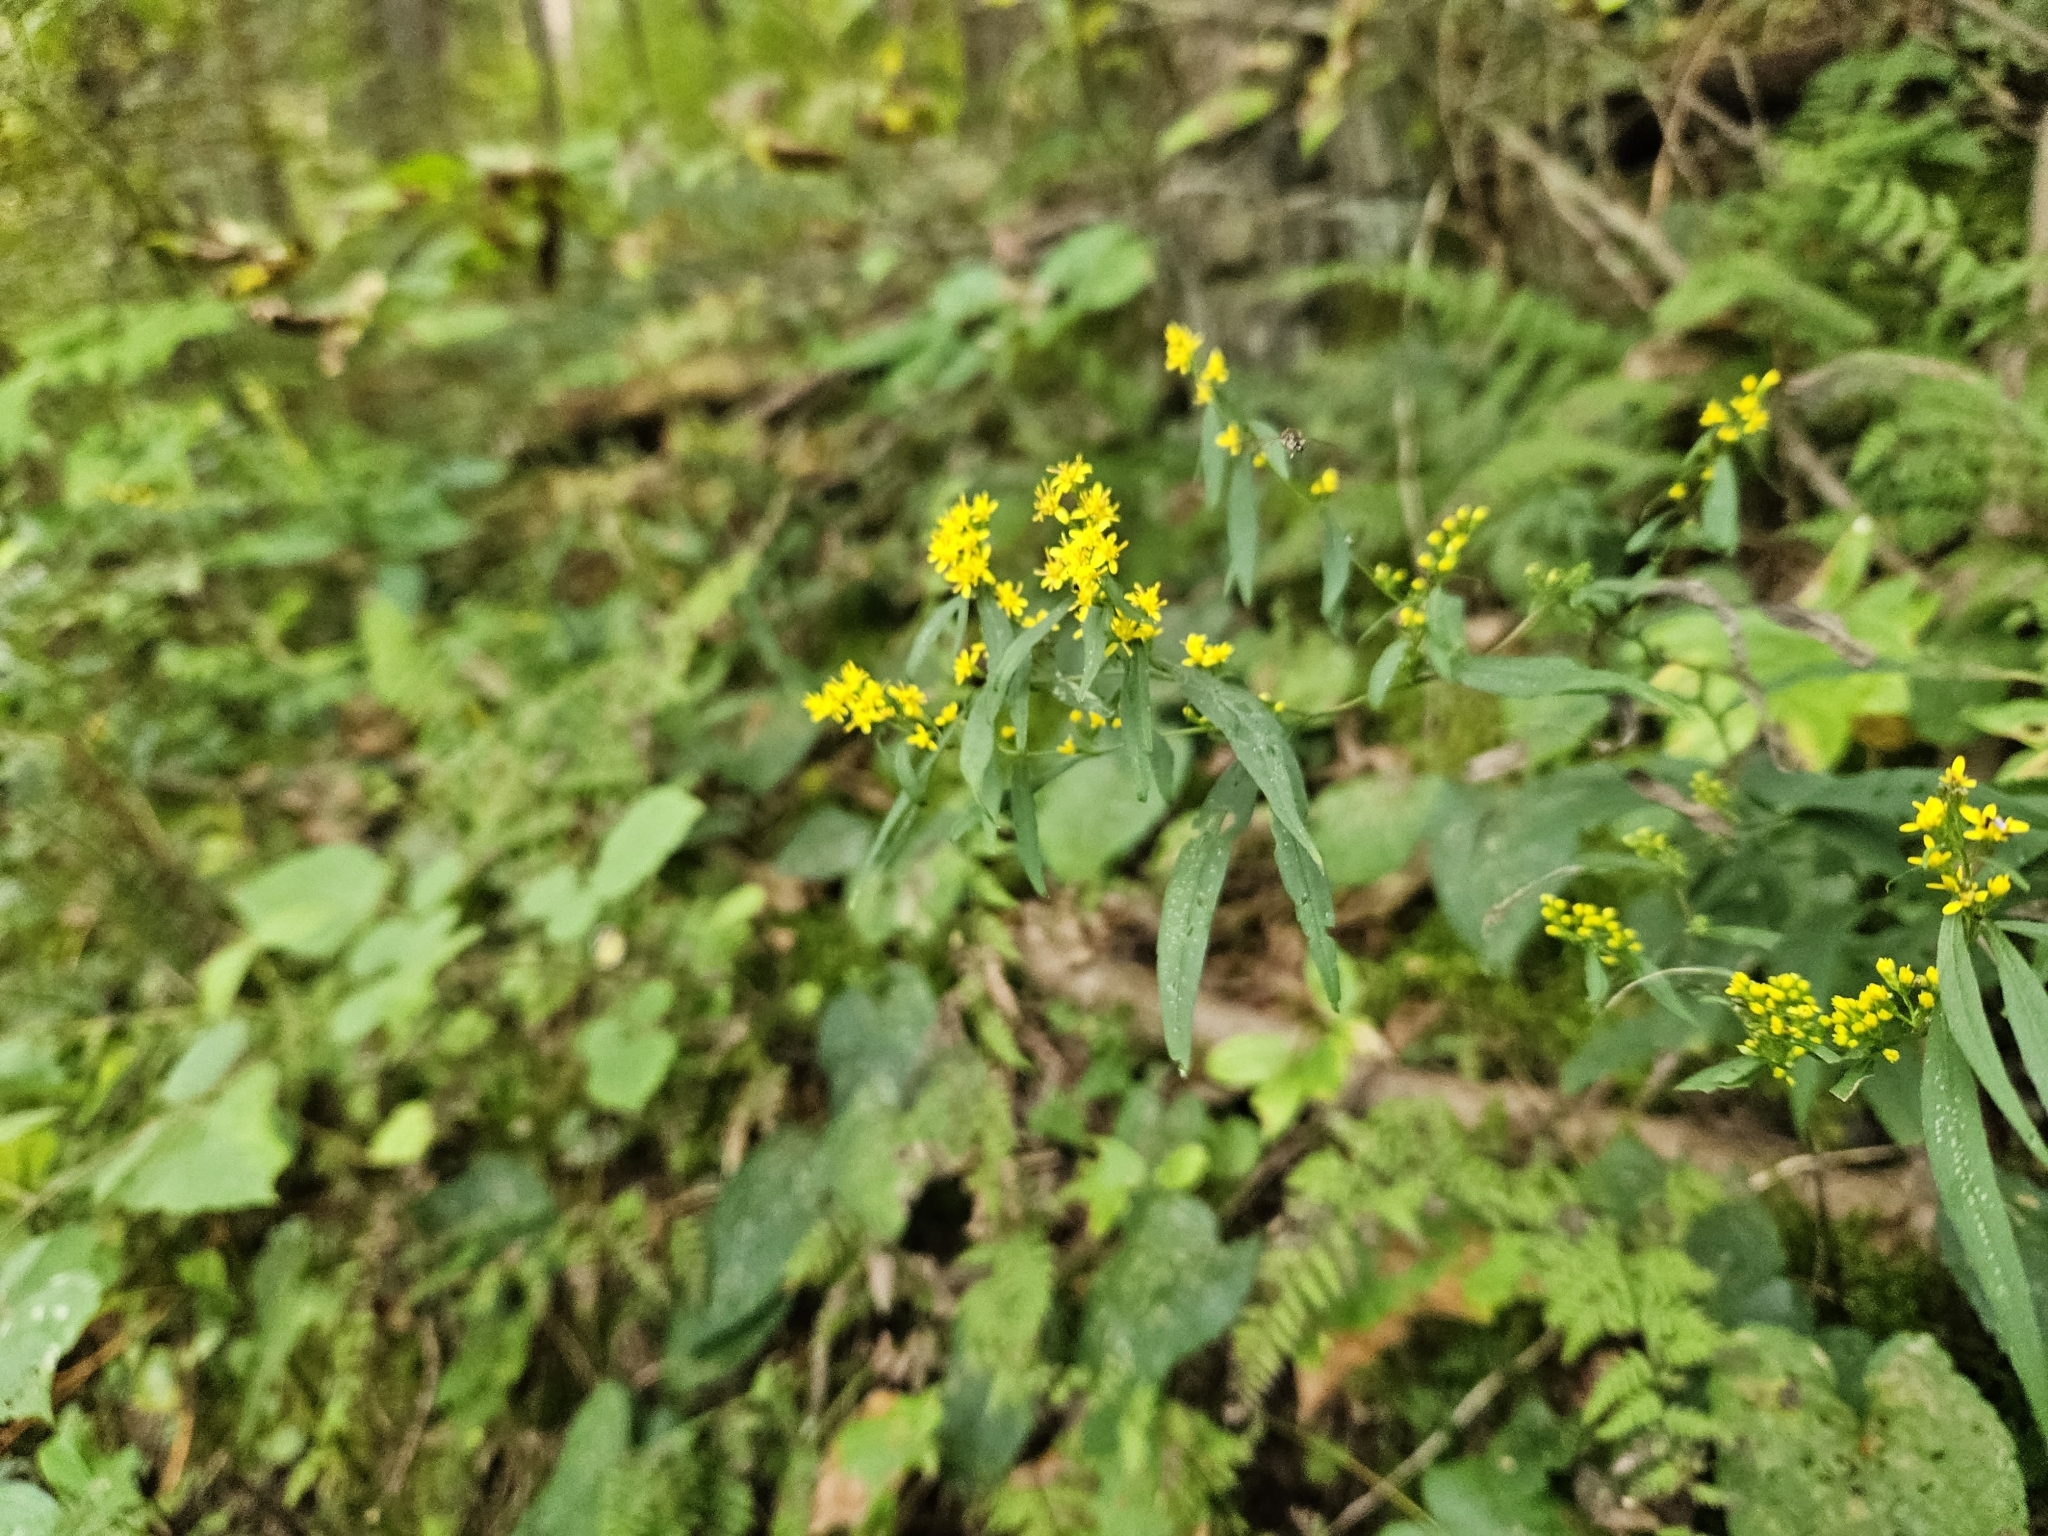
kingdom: Plantae
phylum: Tracheophyta
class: Magnoliopsida
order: Asterales
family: Asteraceae
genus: Solidago
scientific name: Solidago caesia
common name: Woodland goldenrod
